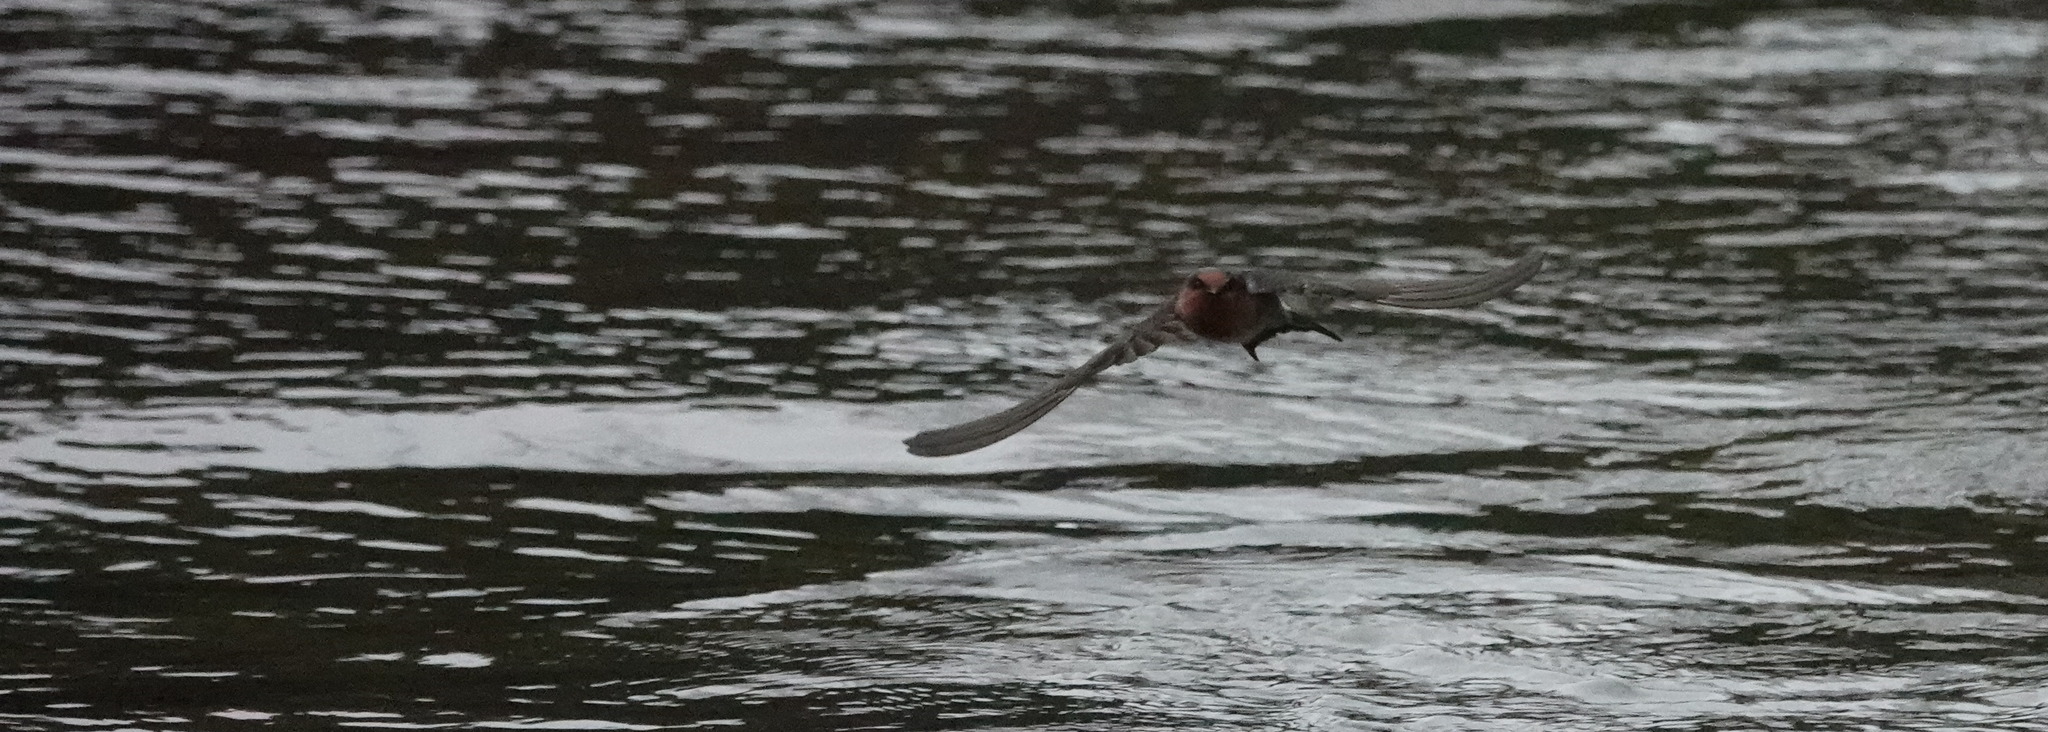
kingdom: Animalia
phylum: Chordata
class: Aves
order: Passeriformes
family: Hirundinidae
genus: Hirundo
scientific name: Hirundo neoxena
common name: Welcome swallow
